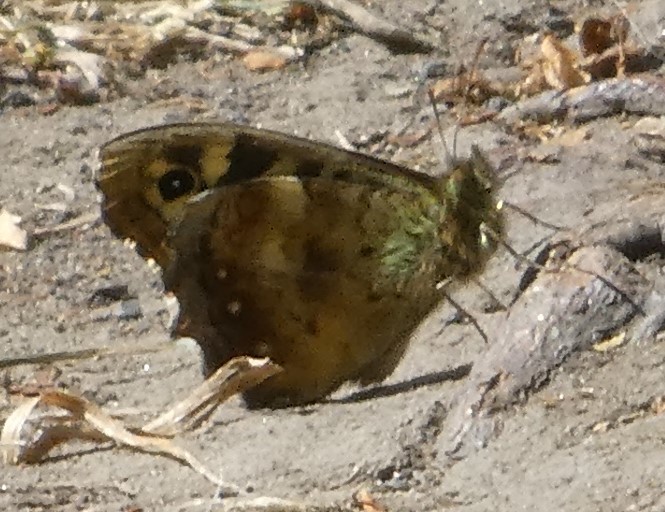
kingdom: Animalia
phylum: Arthropoda
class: Insecta
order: Lepidoptera
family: Nymphalidae
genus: Pararge
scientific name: Pararge aegeria
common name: Speckled wood
